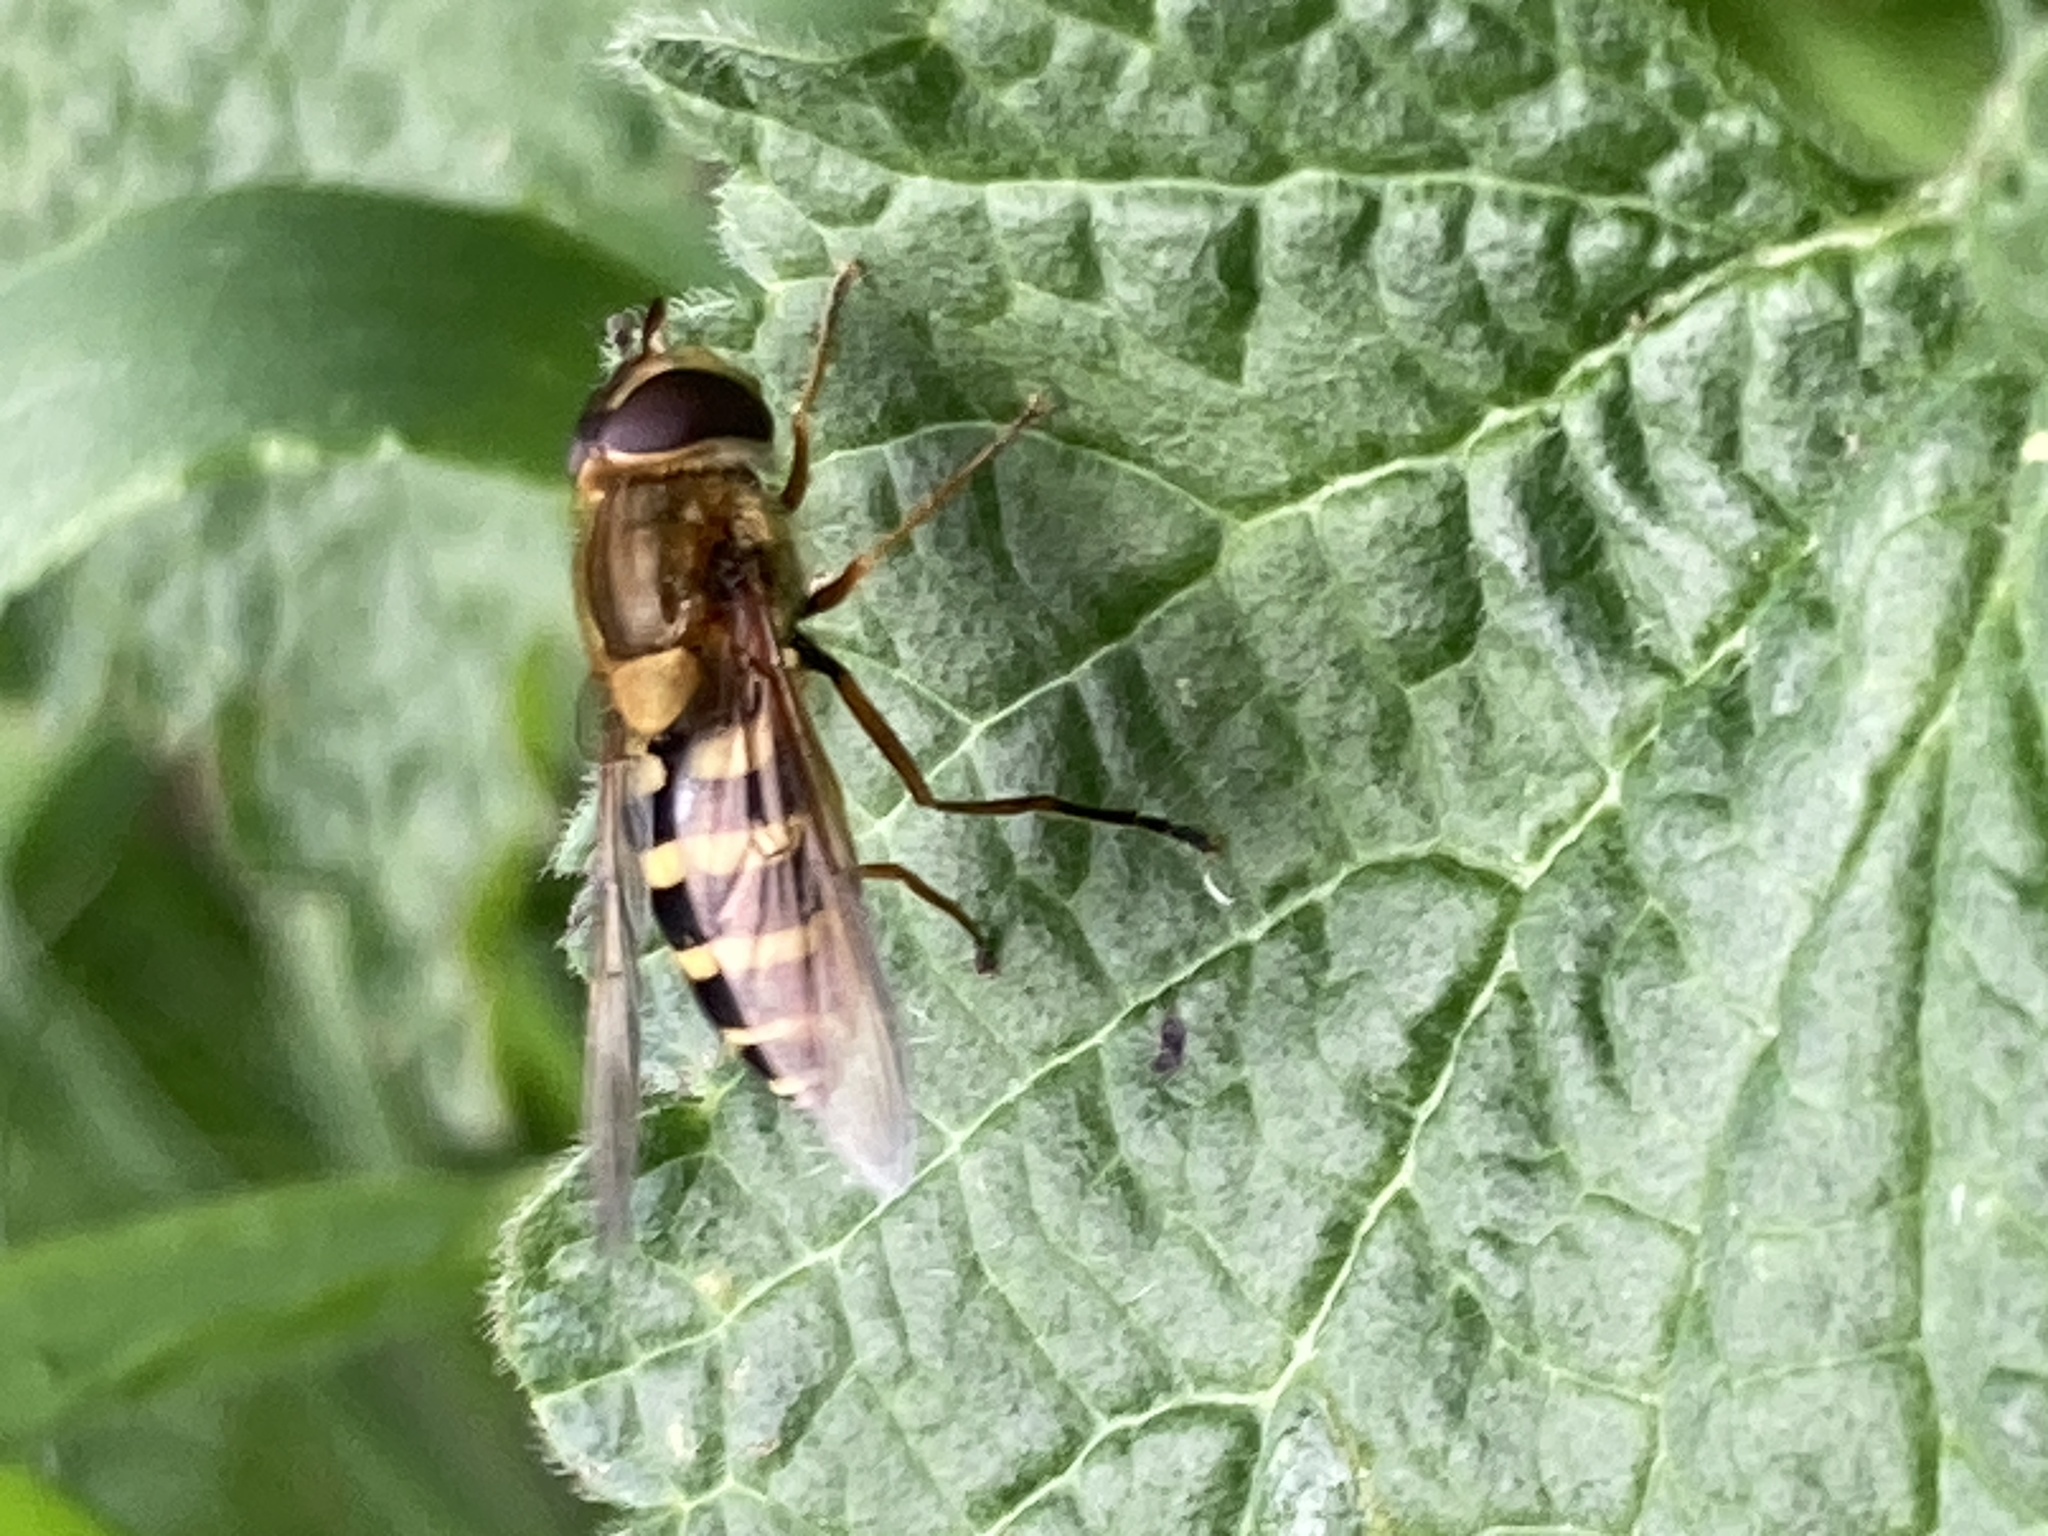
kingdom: Animalia
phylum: Arthropoda
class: Insecta
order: Diptera
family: Syrphidae
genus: Syrphus
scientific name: Syrphus ribesii
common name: Common flower fly
